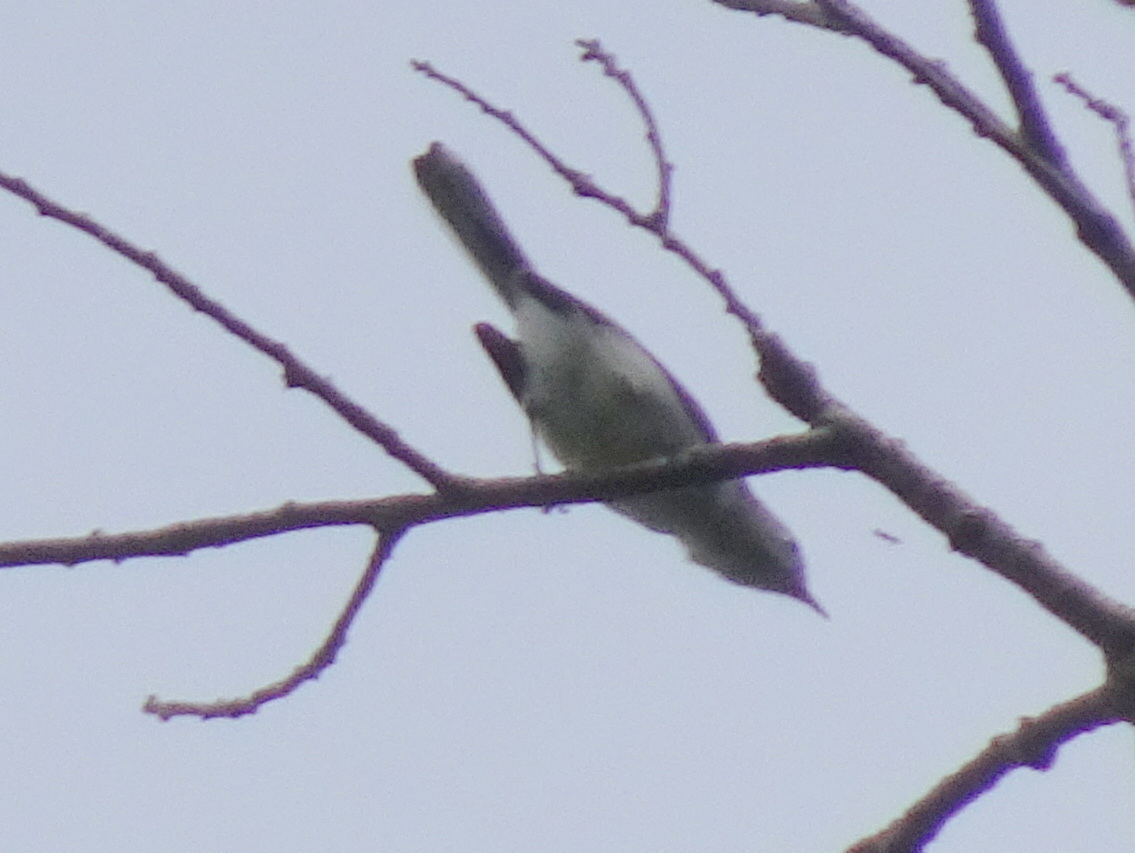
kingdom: Animalia
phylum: Chordata
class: Aves
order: Passeriformes
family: Polioptilidae
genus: Polioptila
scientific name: Polioptila caerulea
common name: Blue-gray gnatcatcher
